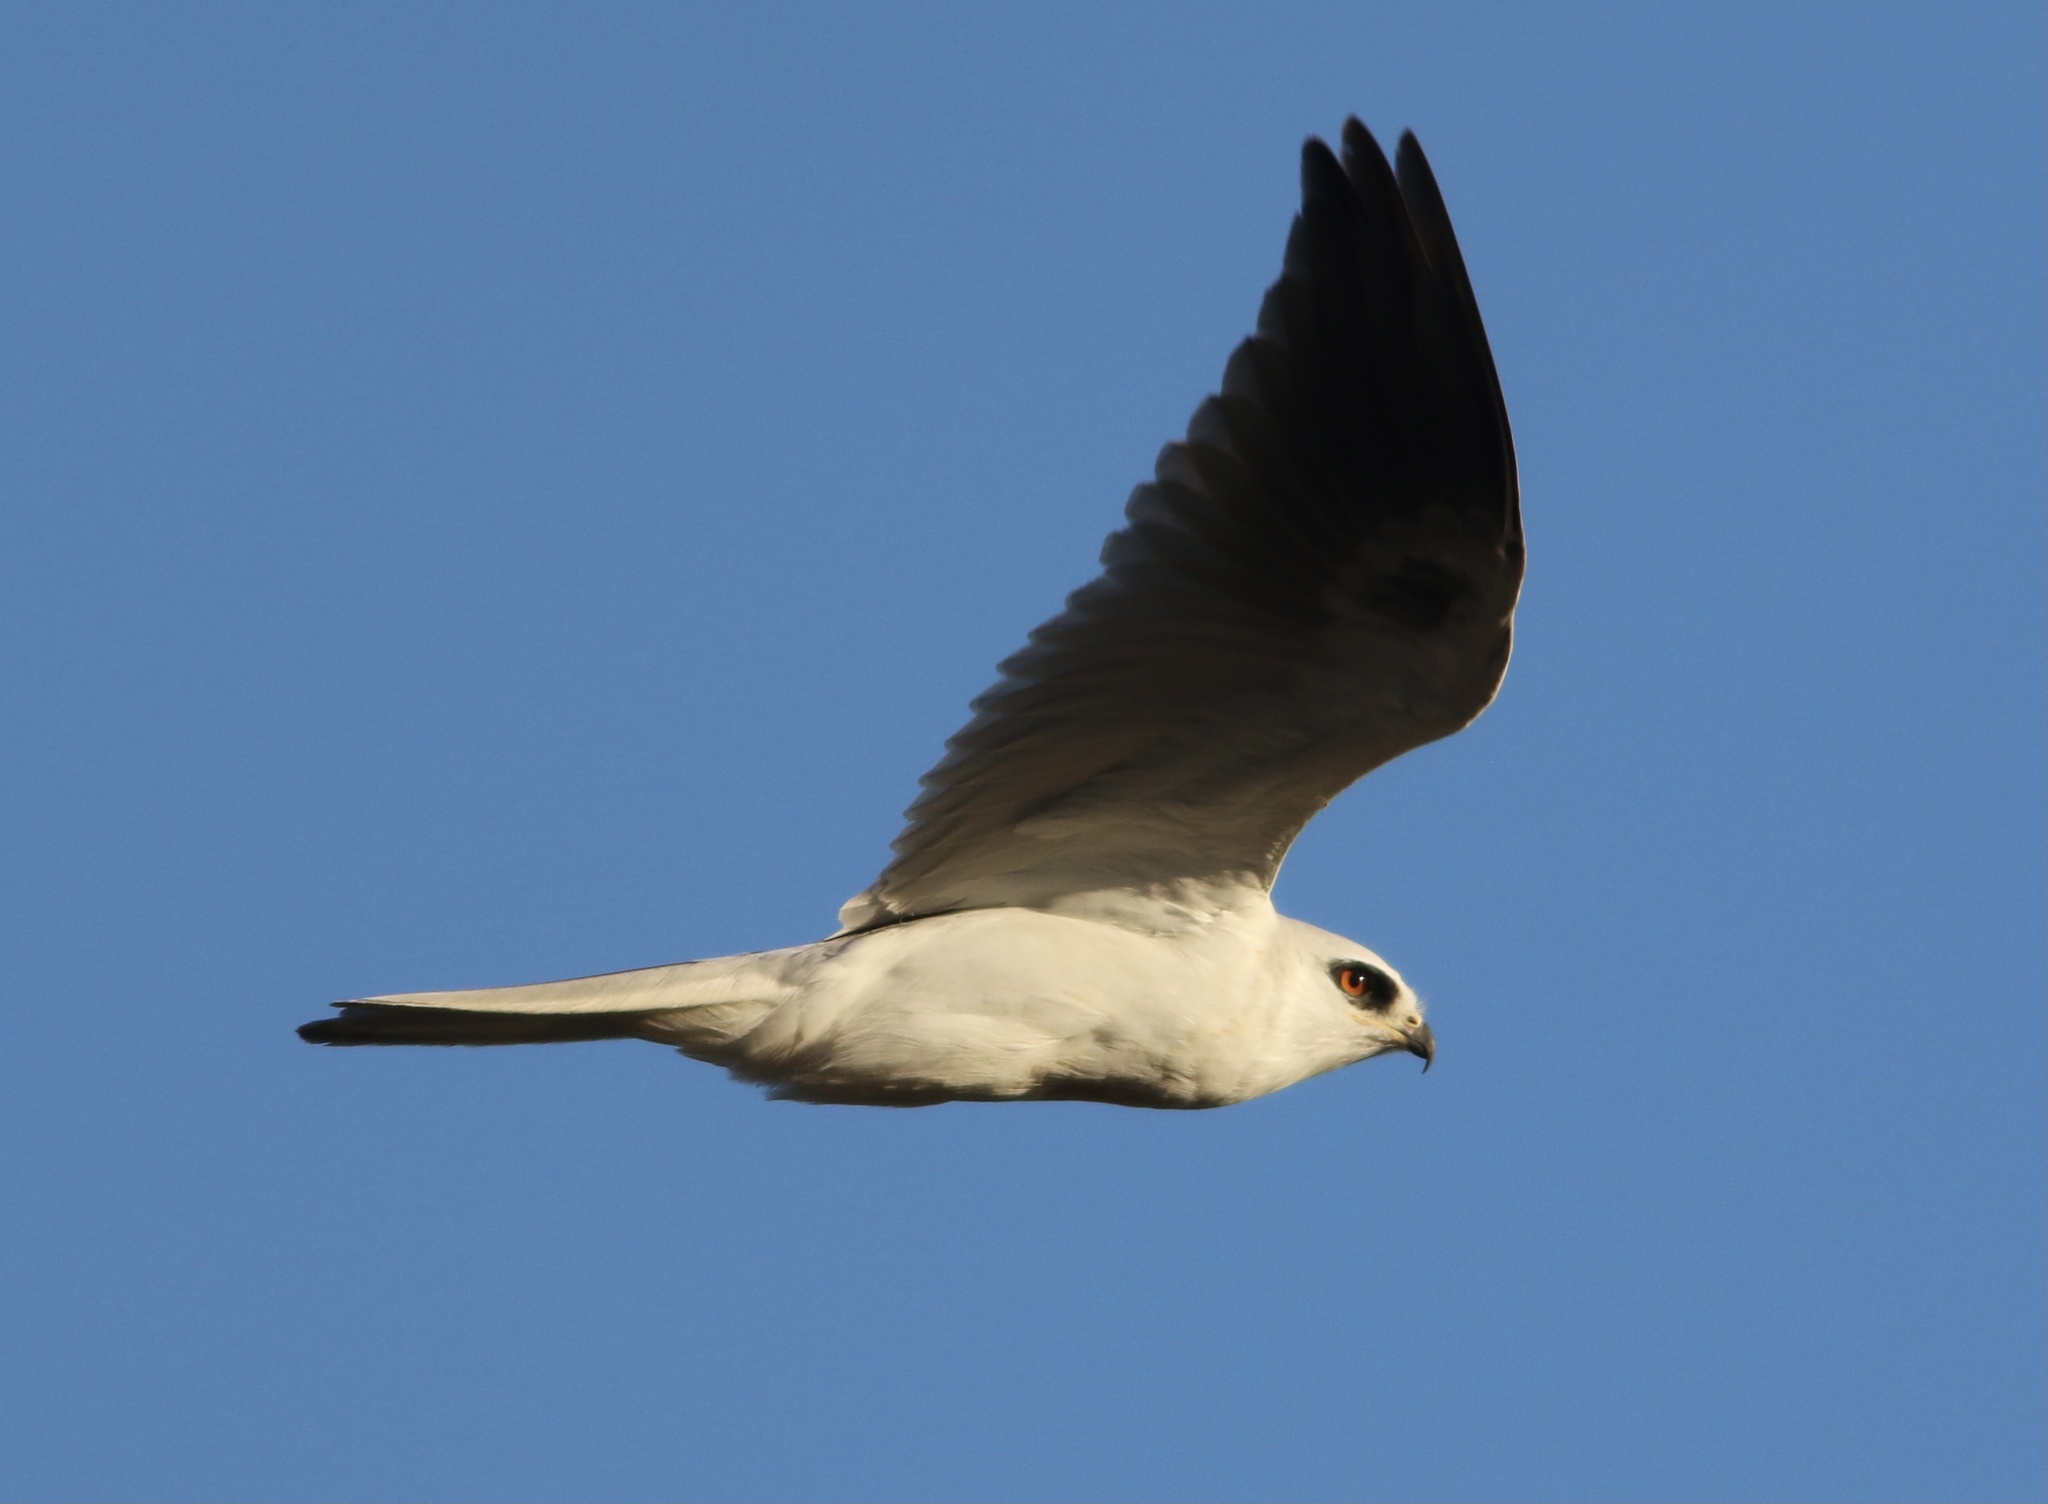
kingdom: Animalia
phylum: Chordata
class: Aves
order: Accipitriformes
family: Accipitridae
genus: Elanus
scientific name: Elanus leucurus
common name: White-tailed kite
